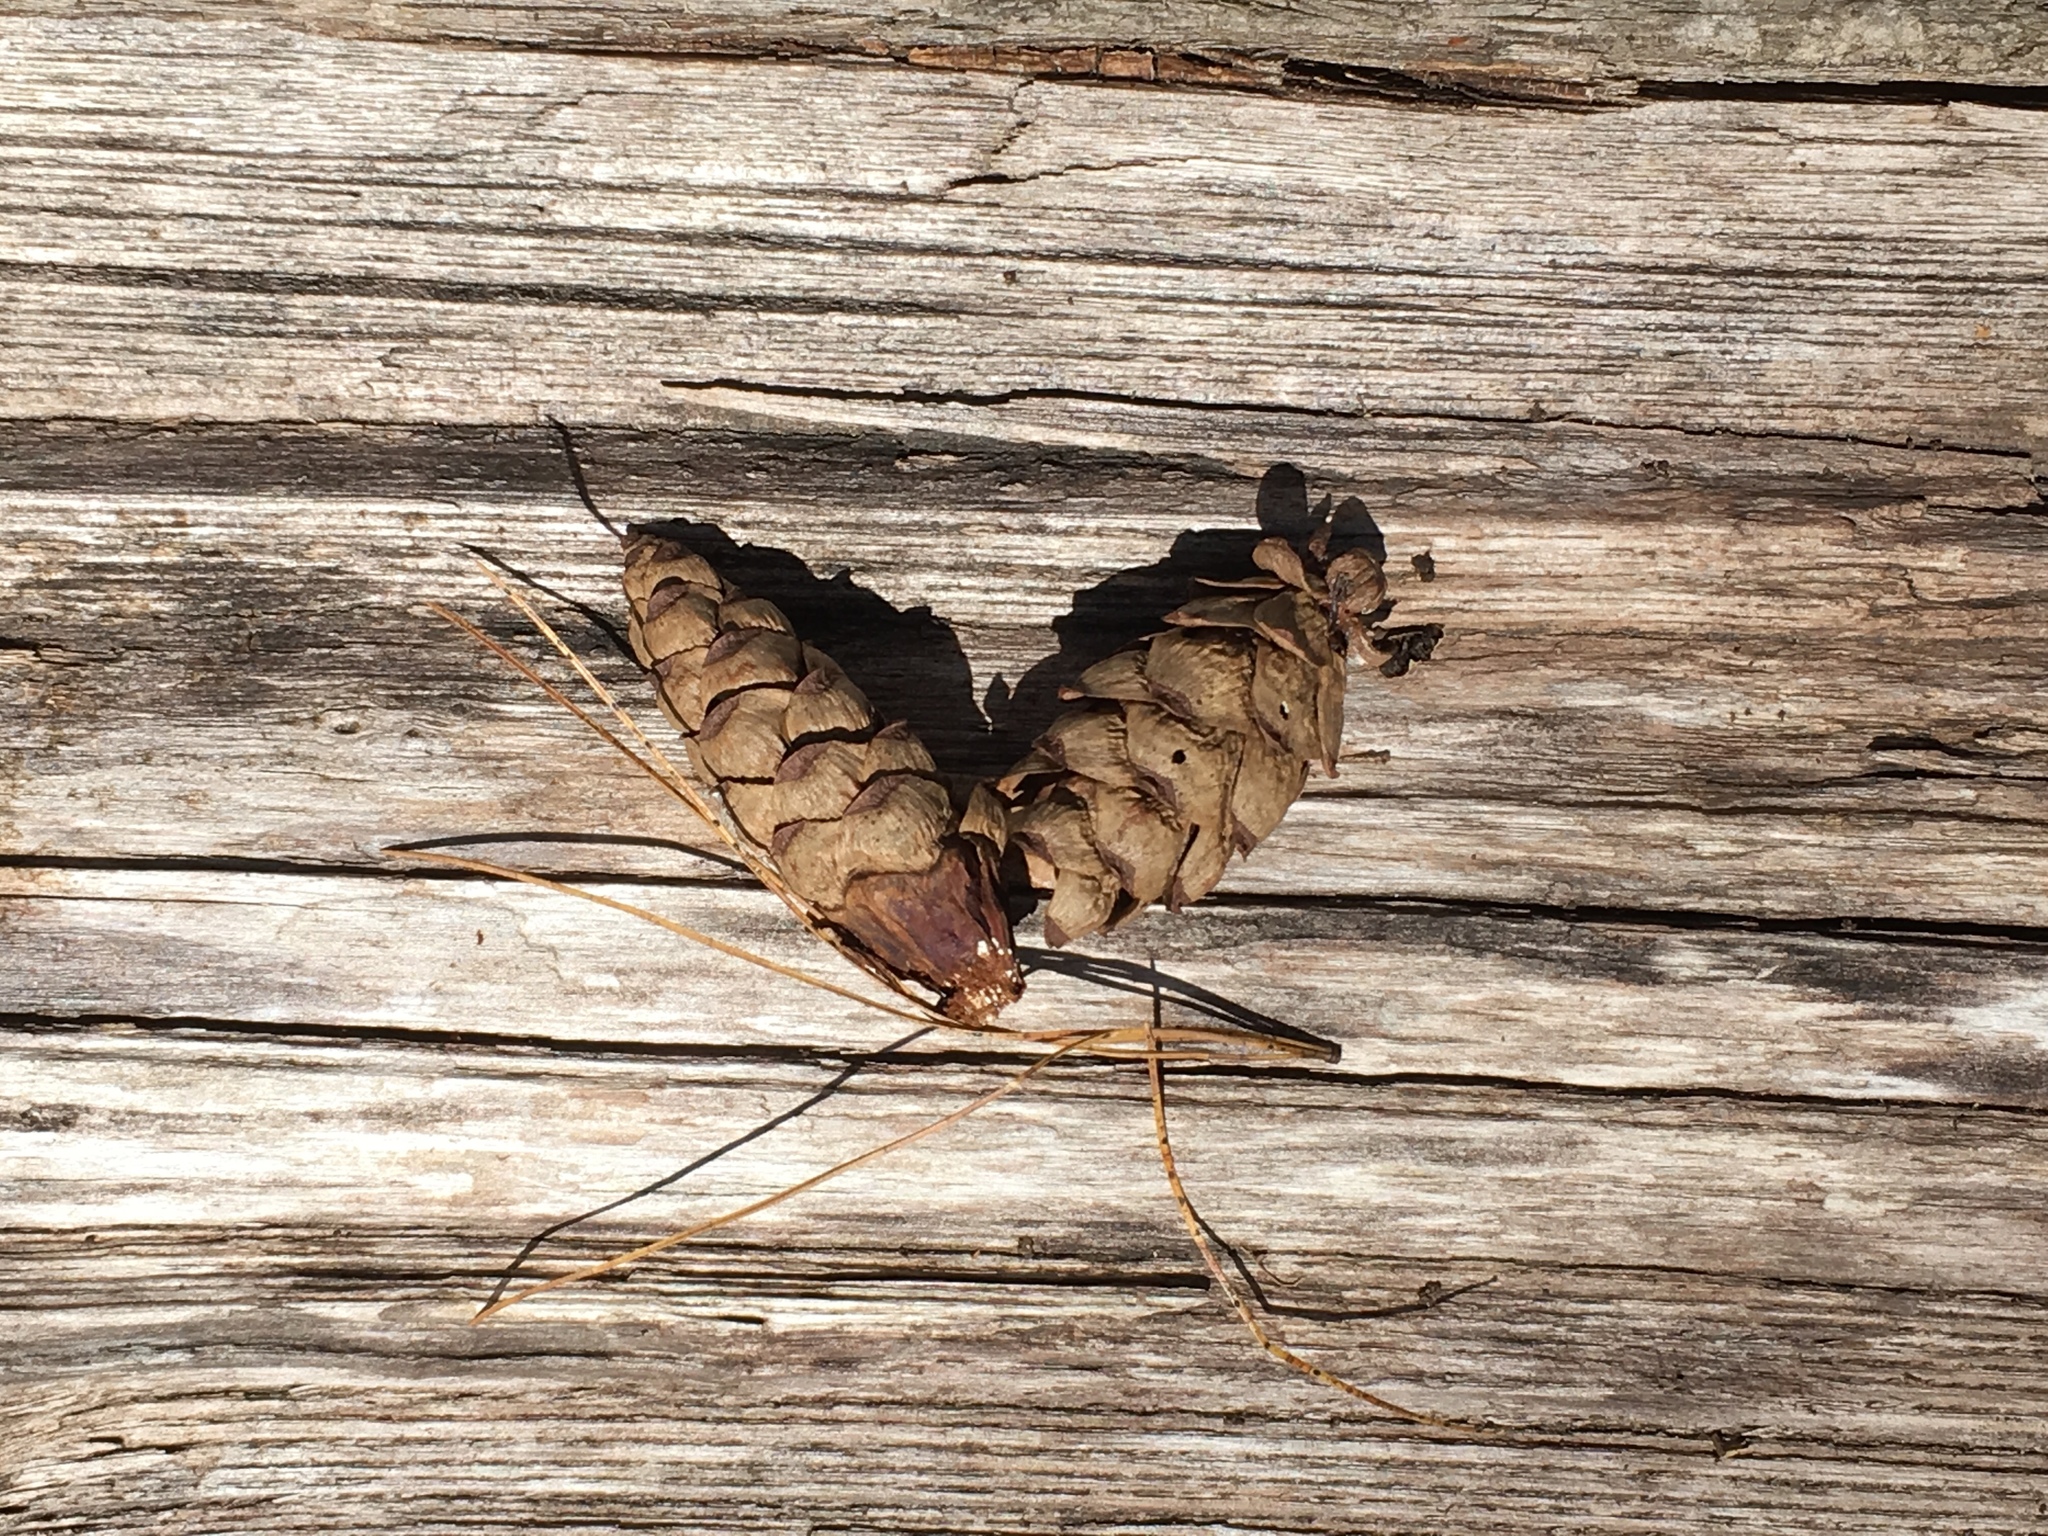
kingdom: Plantae
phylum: Tracheophyta
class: Pinopsida
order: Pinales
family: Pinaceae
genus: Pinus
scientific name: Pinus strobus
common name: Weymouth pine
